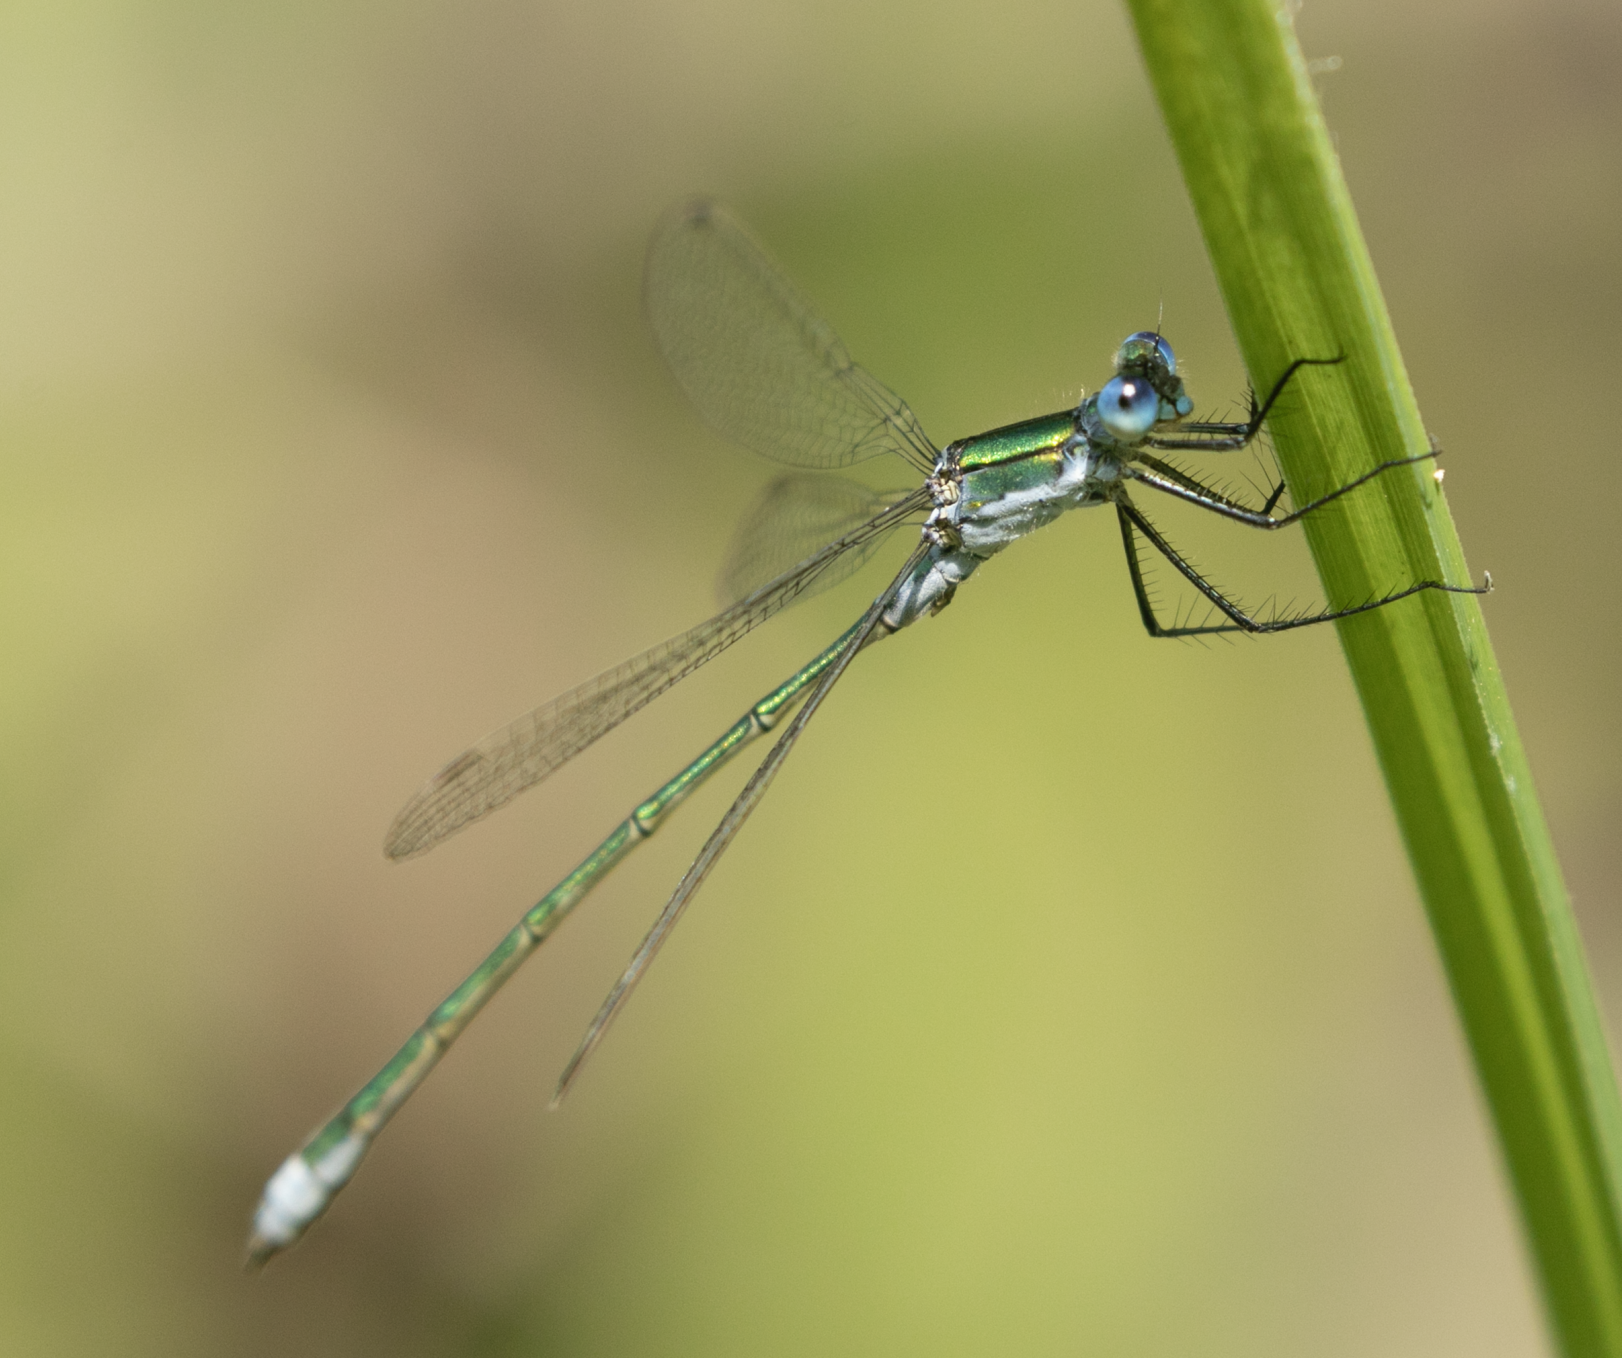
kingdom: Animalia
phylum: Arthropoda
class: Insecta
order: Odonata
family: Lestidae
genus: Lestes
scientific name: Lestes sponsa
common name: Common spreadwing
